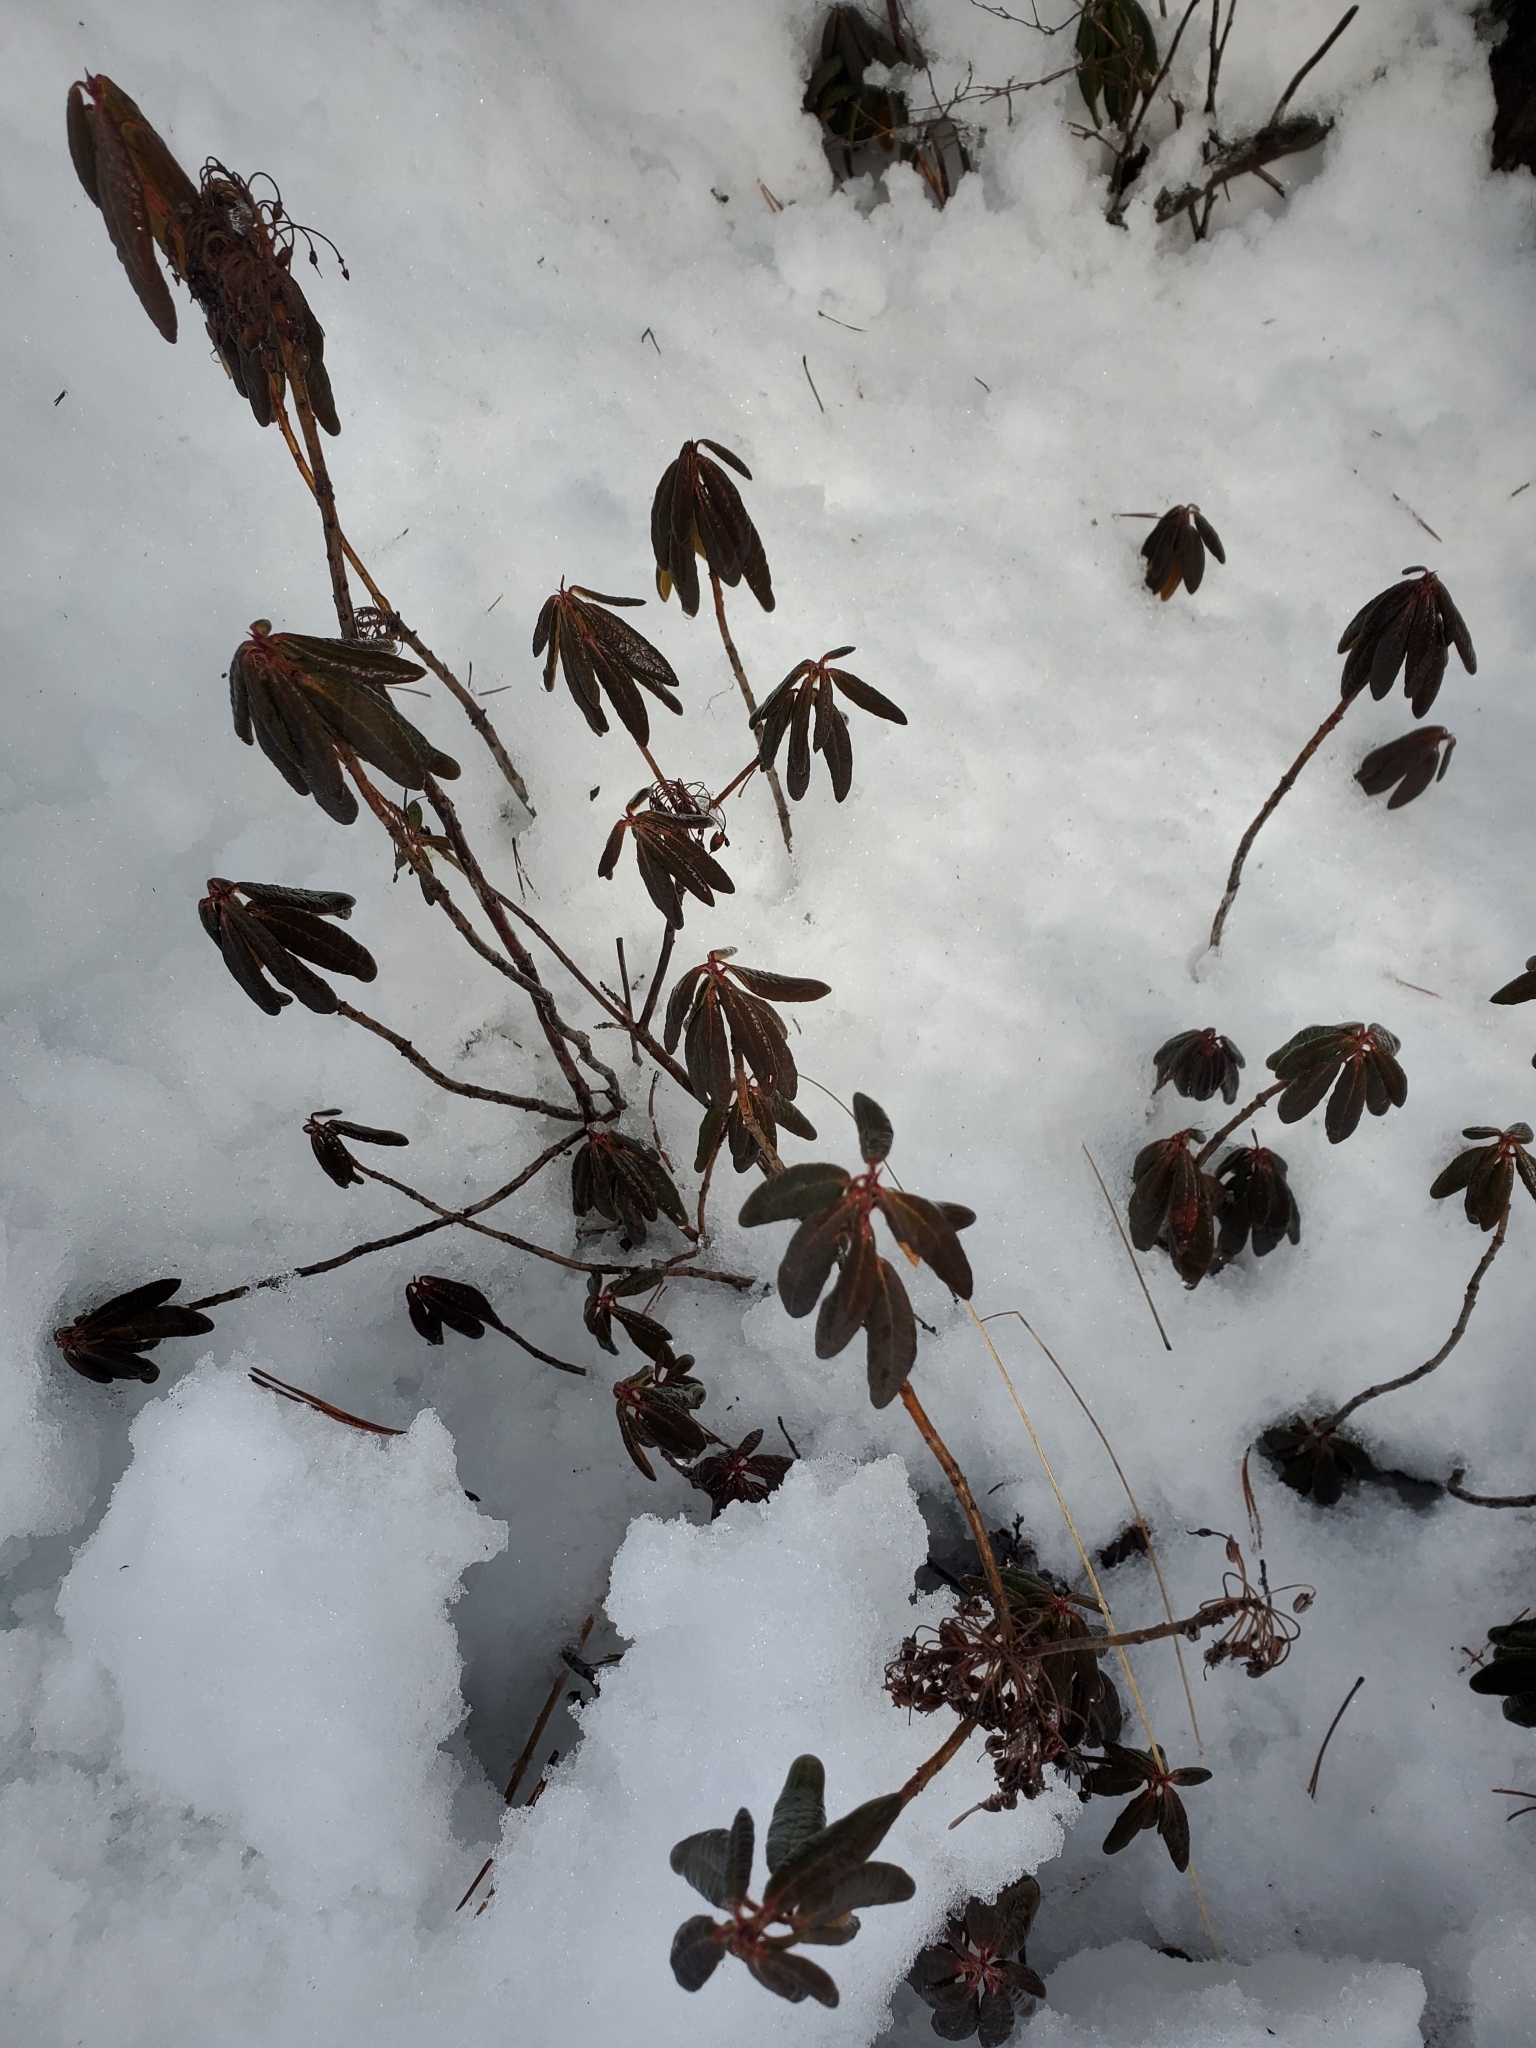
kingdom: Plantae
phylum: Tracheophyta
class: Magnoliopsida
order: Ericales
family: Ericaceae
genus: Rhododendron
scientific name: Rhododendron groenlandicum
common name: Bog labrador tea
